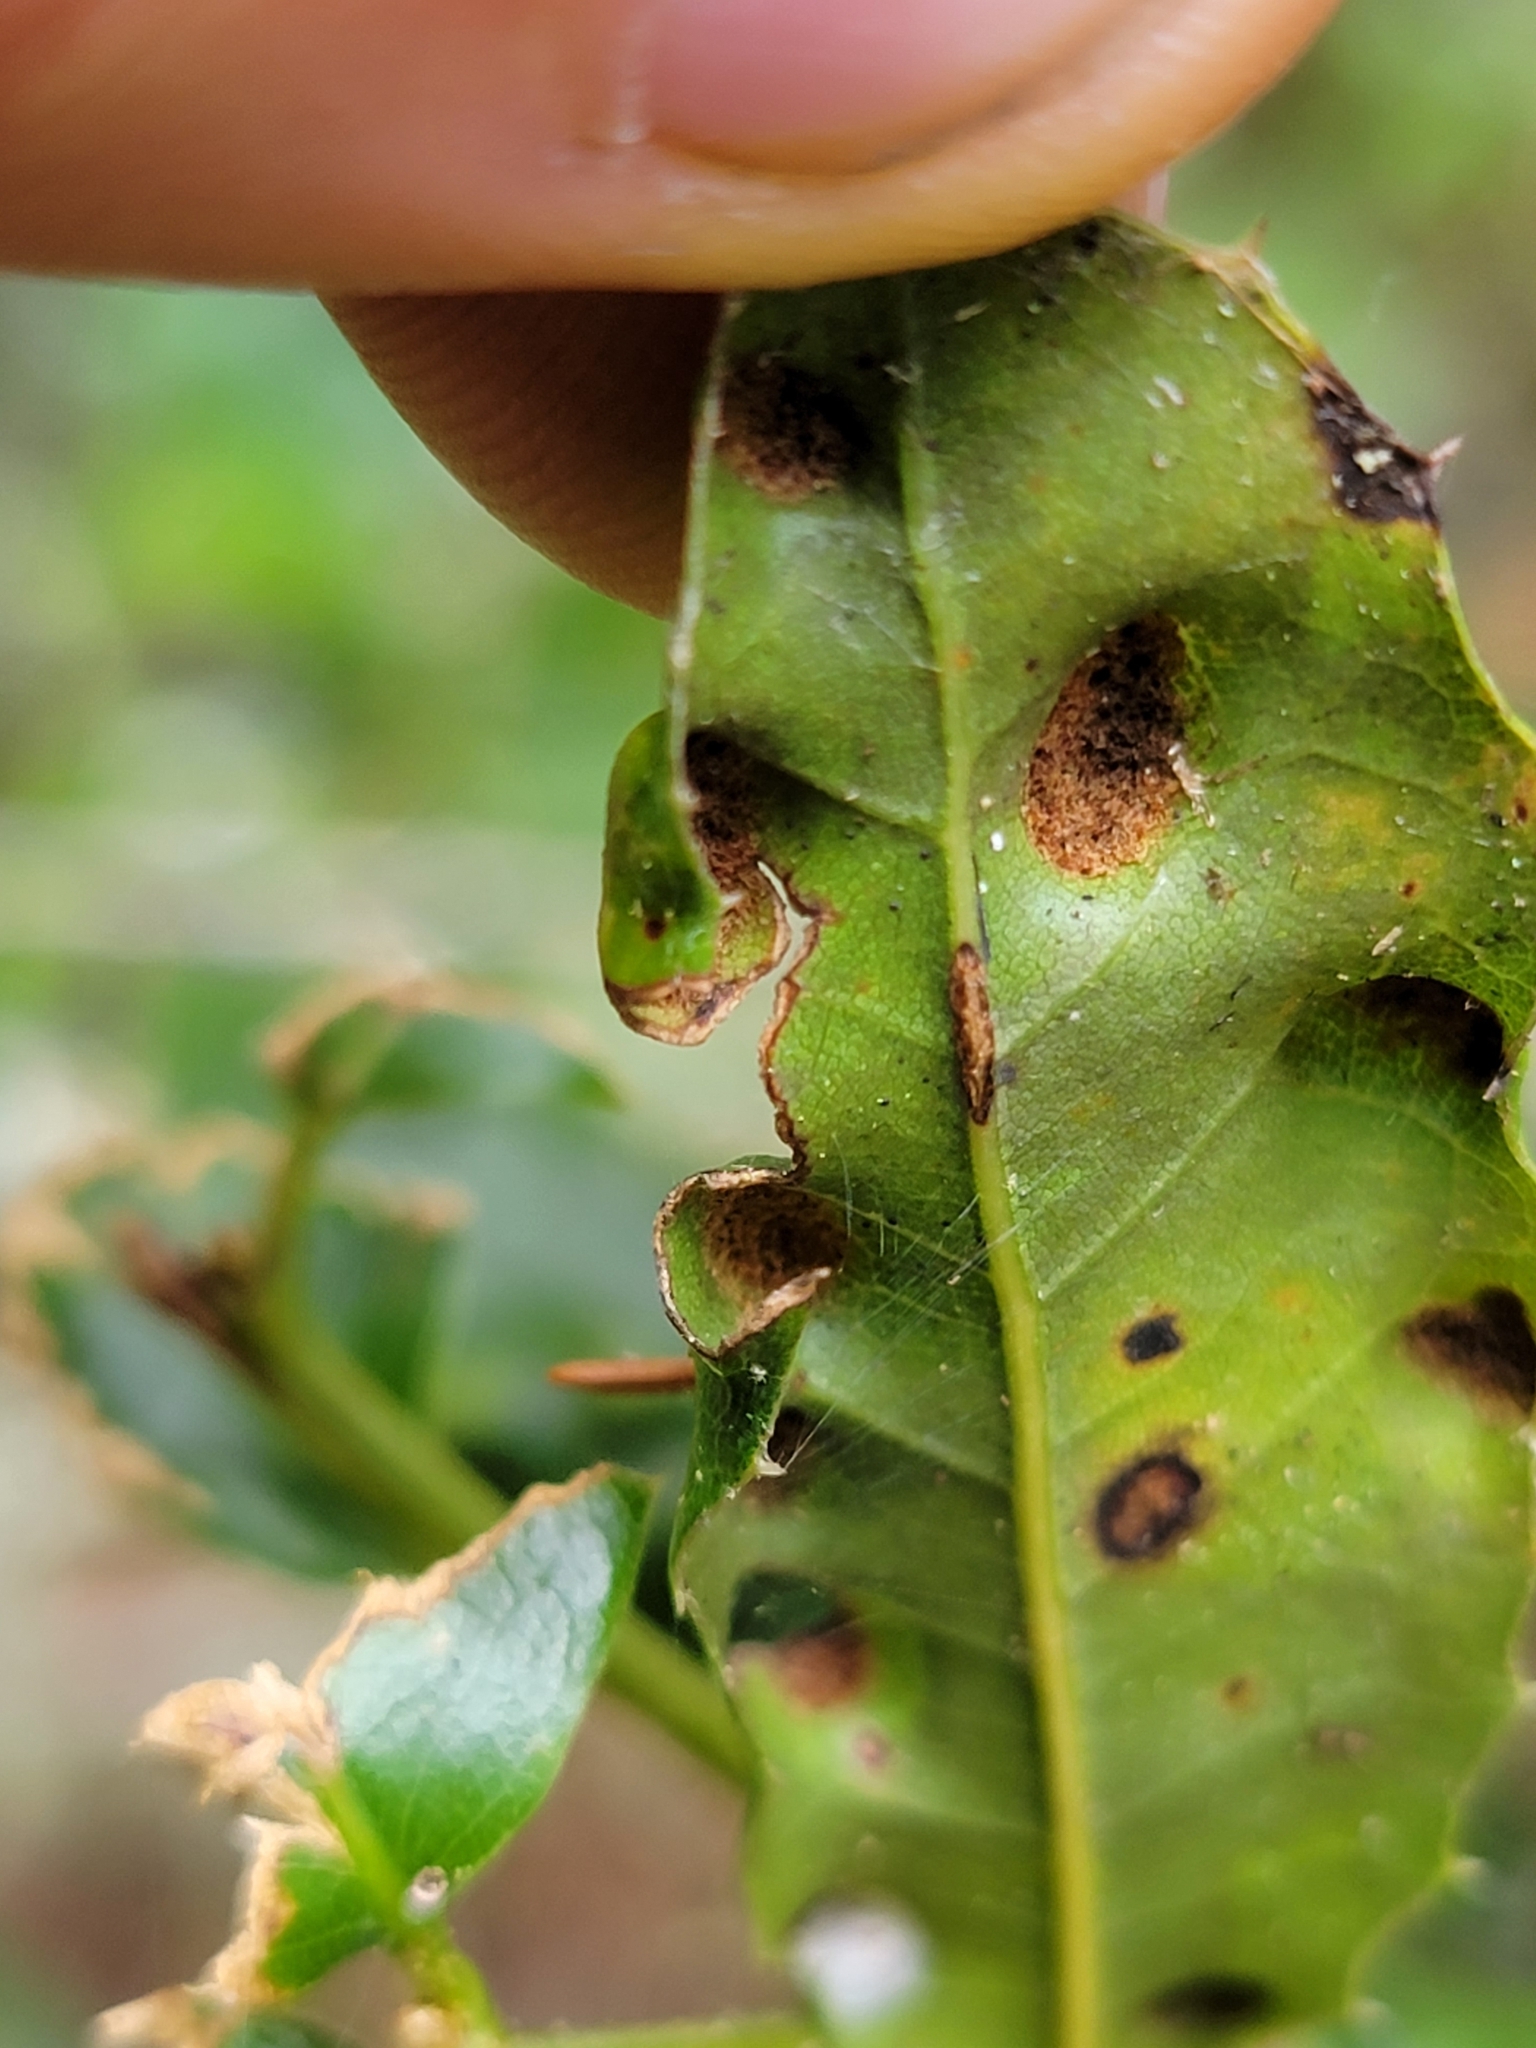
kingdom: Animalia
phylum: Arthropoda
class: Arachnida
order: Trombidiformes
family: Eriophyidae
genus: Aceria
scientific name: Aceria
